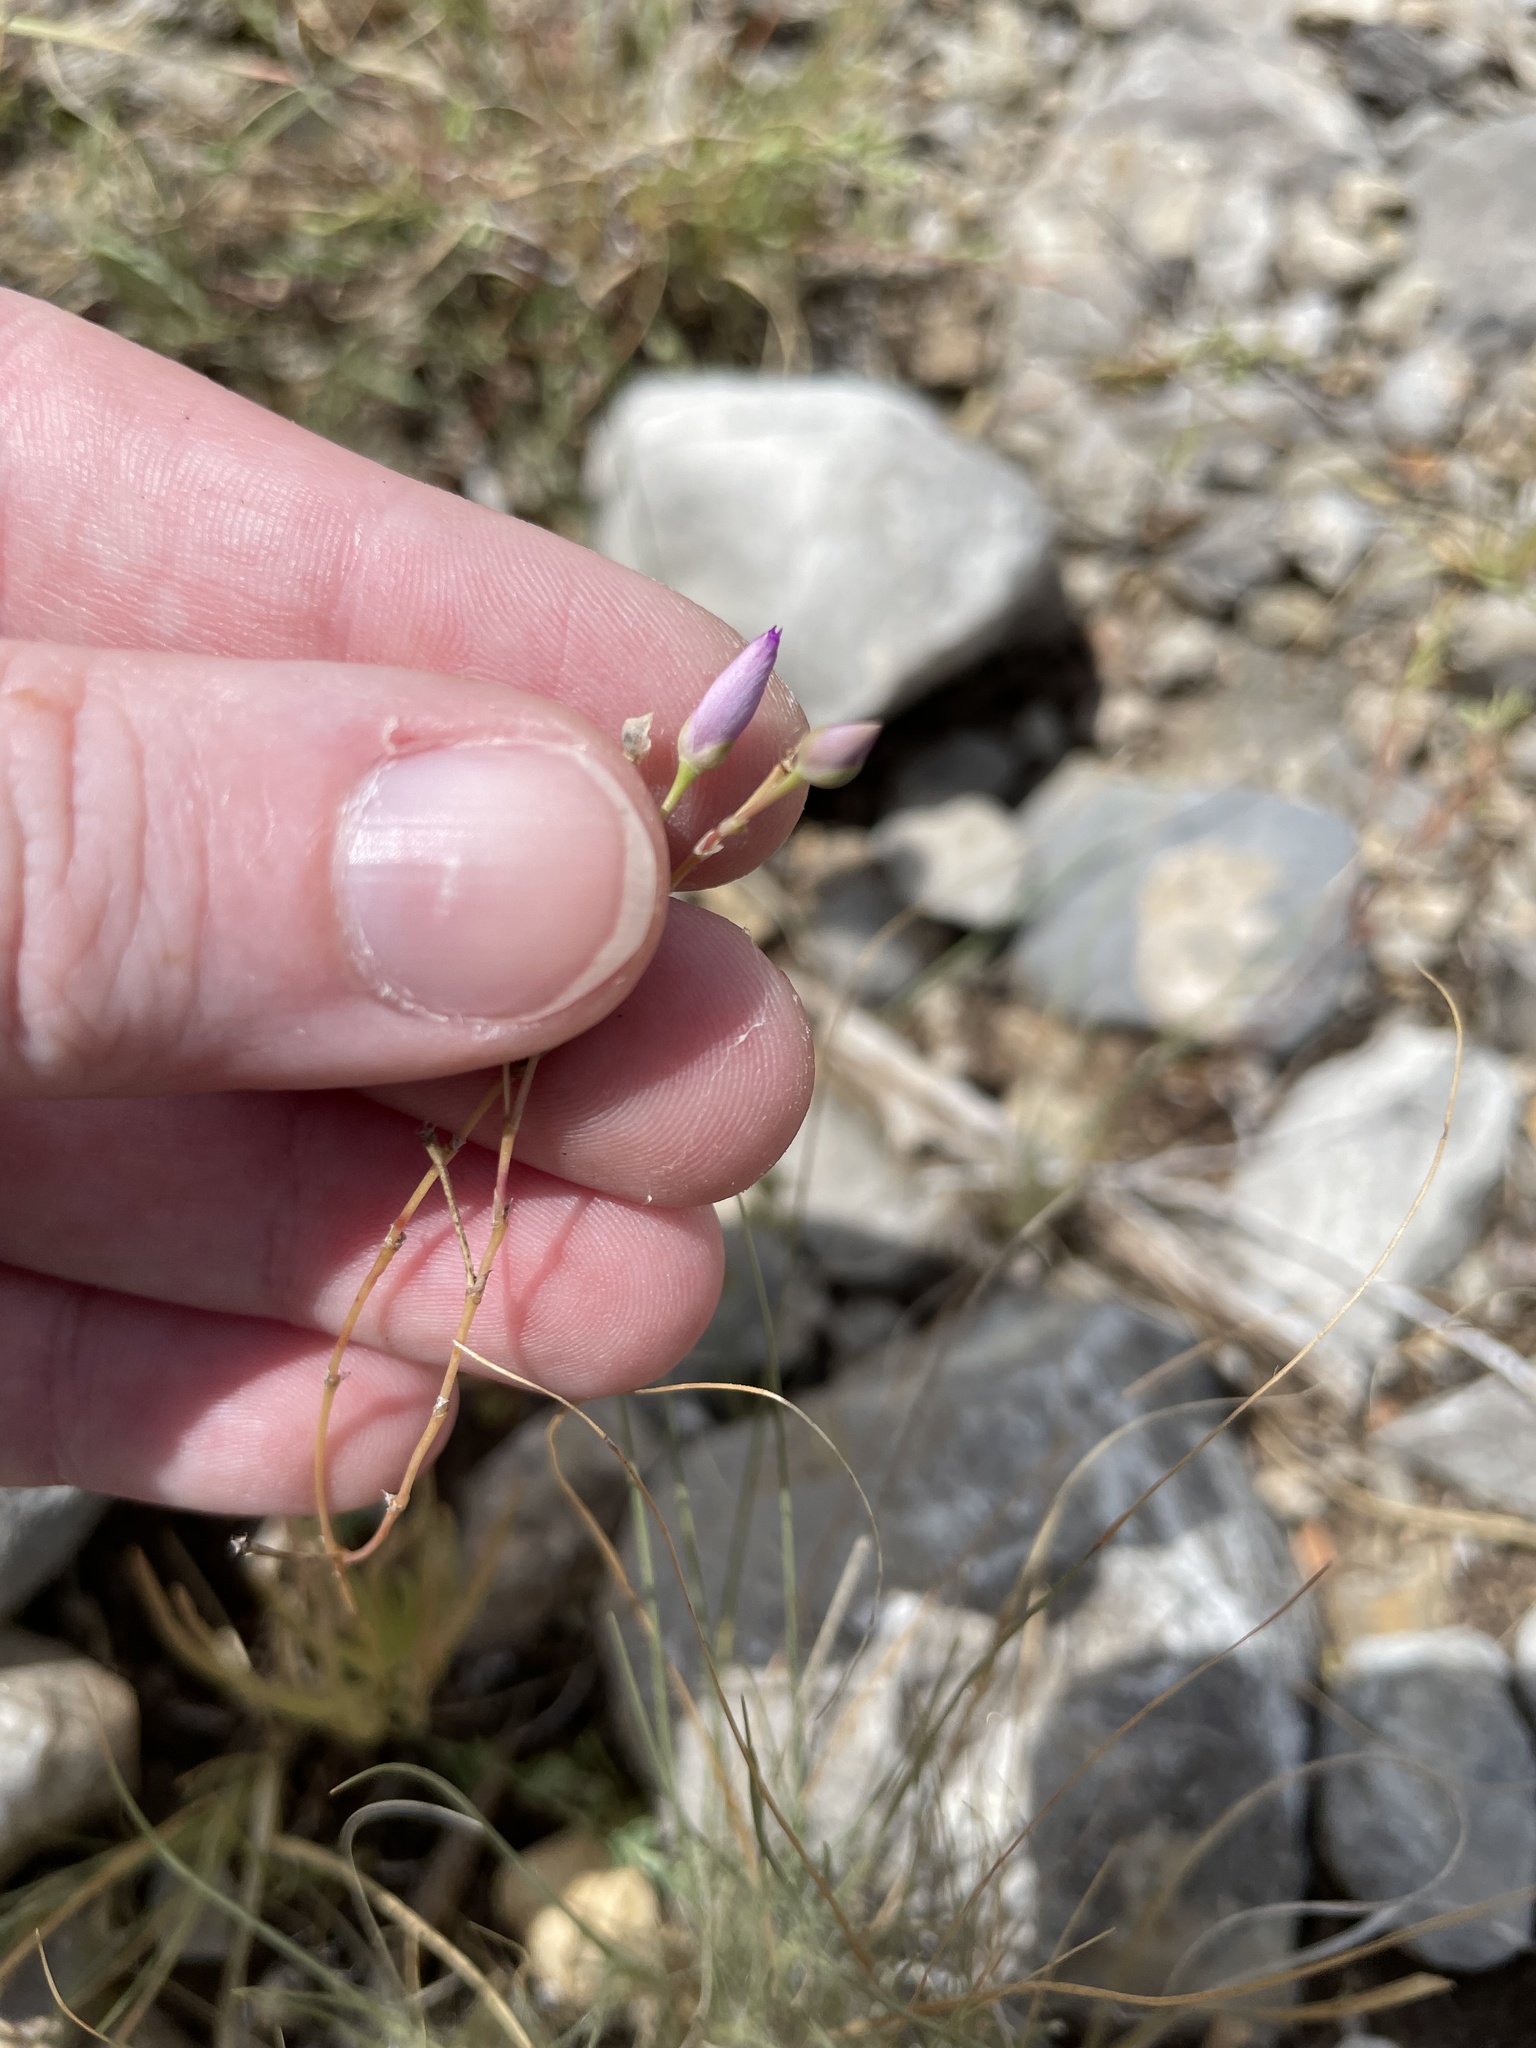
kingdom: Plantae
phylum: Tracheophyta
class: Magnoliopsida
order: Caryophyllales
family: Montiaceae
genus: Phemeranthus
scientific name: Phemeranthus parviflorus
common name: Sunbright
